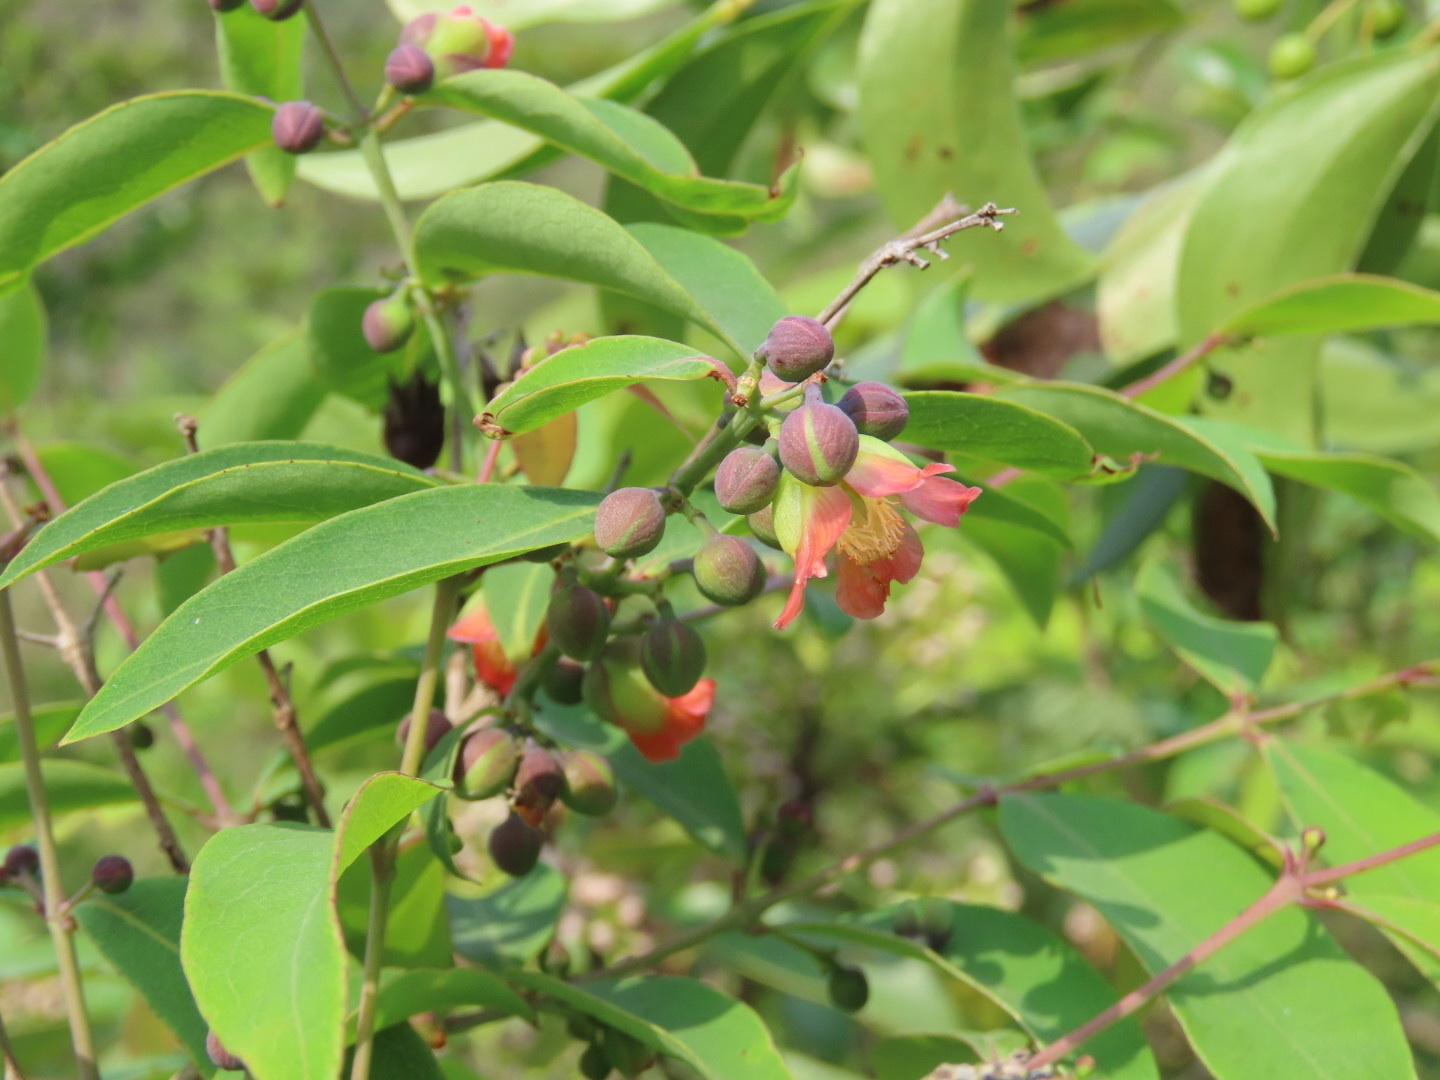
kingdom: Plantae
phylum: Tracheophyta
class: Magnoliopsida
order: Malpighiales
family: Hypericaceae
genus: Cratoxylum
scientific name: Cratoxylum cochinchinense
